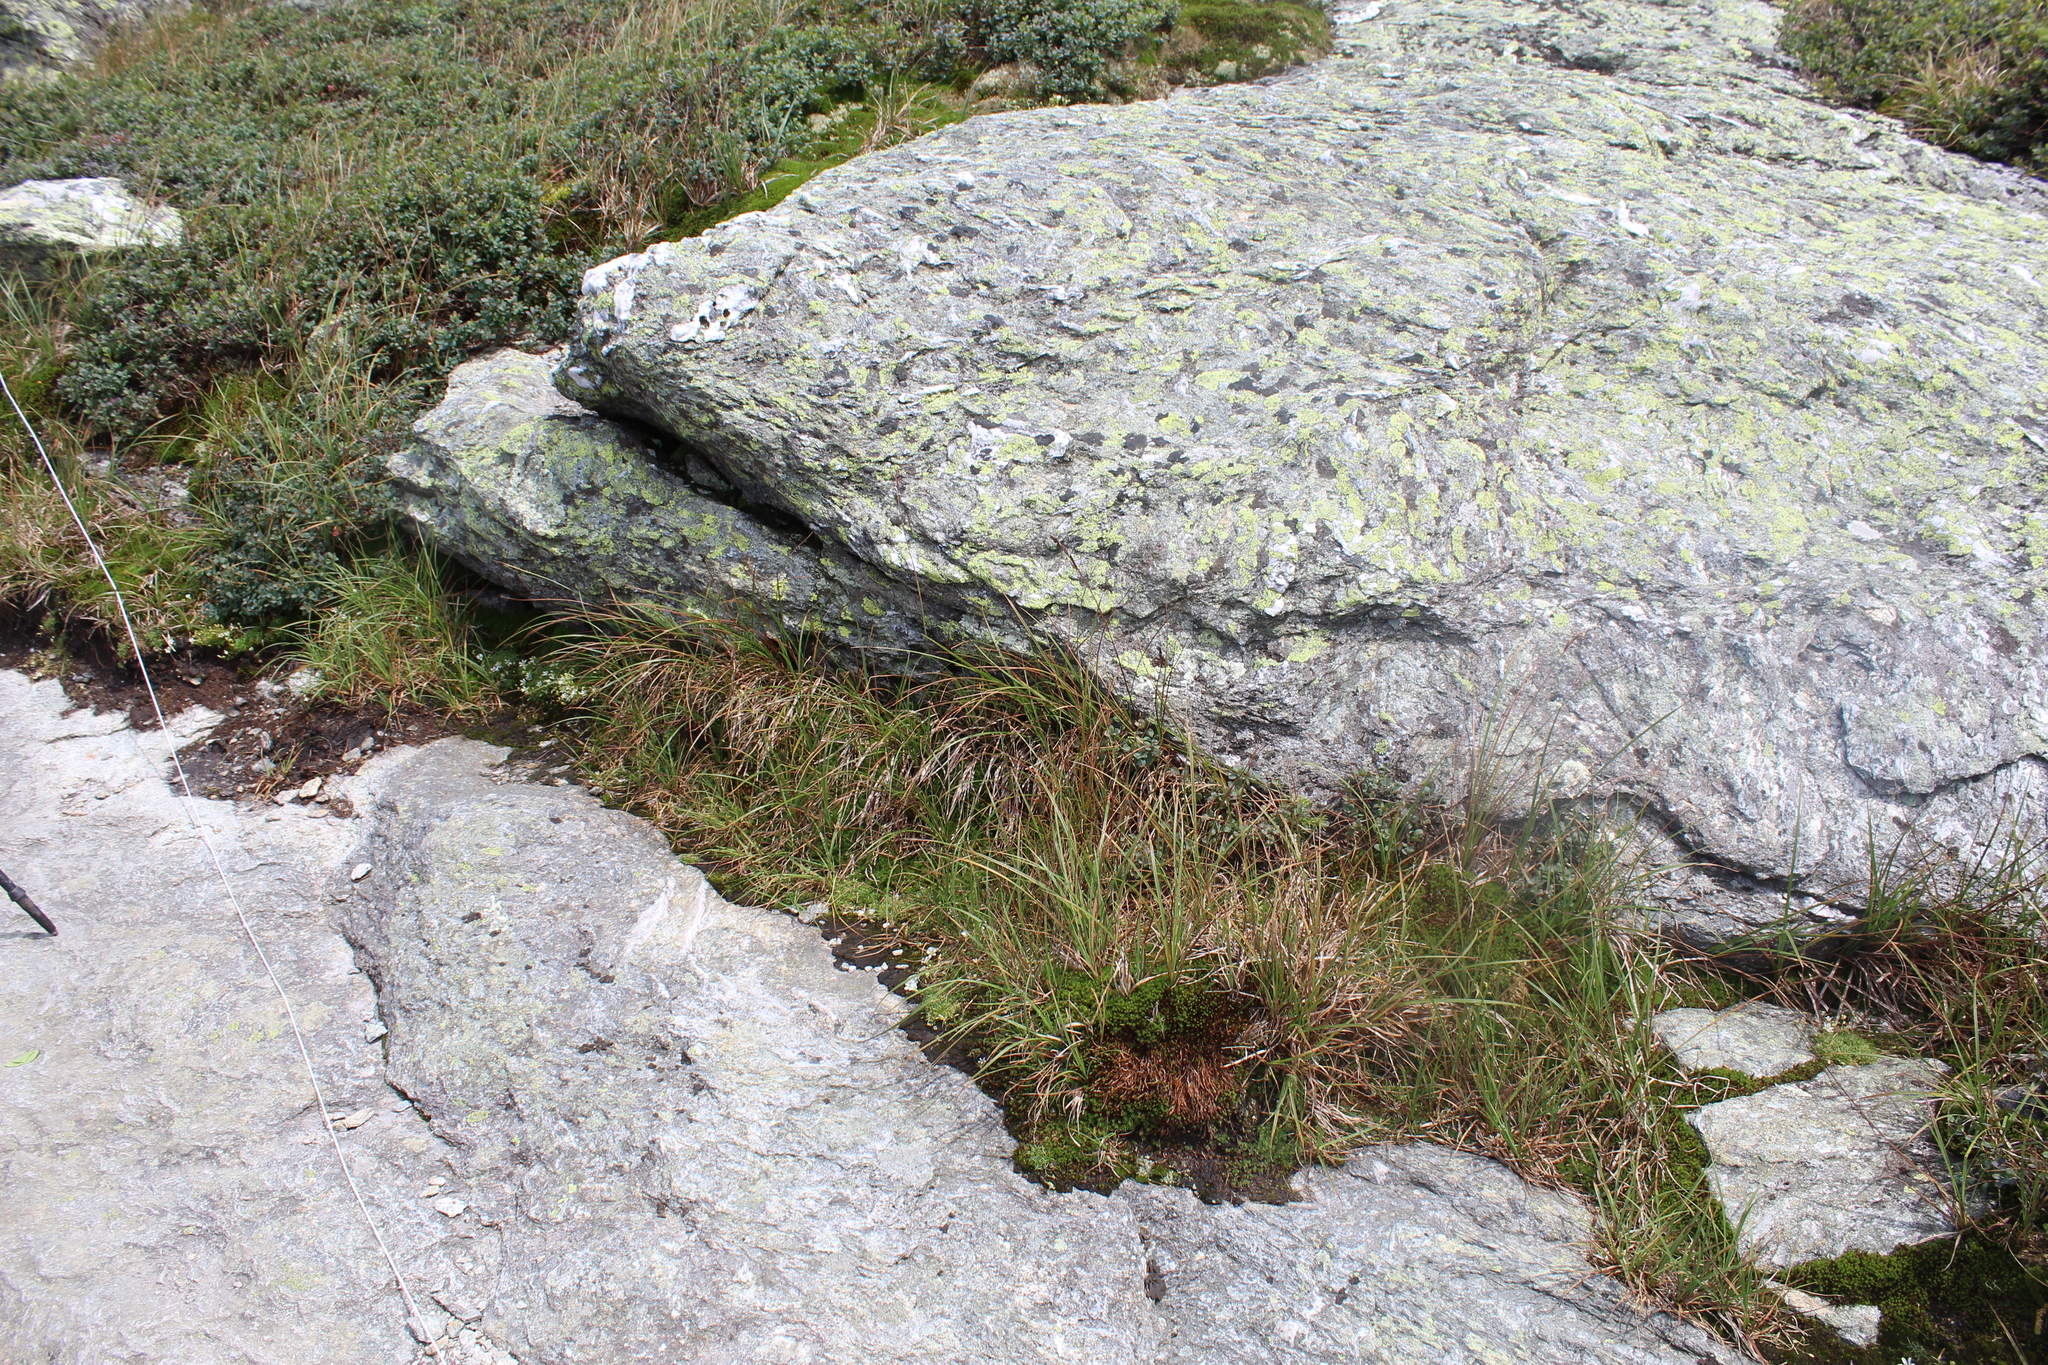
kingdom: Plantae
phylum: Tracheophyta
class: Liliopsida
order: Poales
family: Cyperaceae
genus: Carex
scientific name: Carex bigelowii
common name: Stiff sedge
